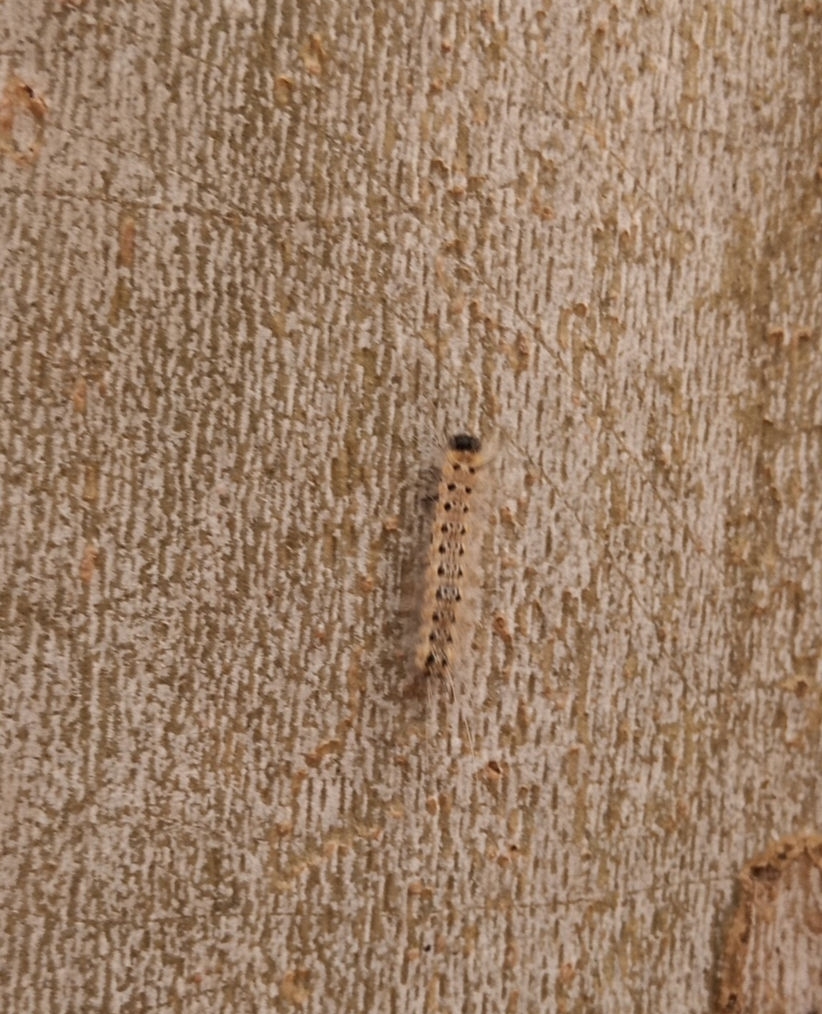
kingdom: Animalia
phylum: Arthropoda
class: Insecta
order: Lepidoptera
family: Erebidae
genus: Hyphantria
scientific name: Hyphantria cunea
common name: American white moth
